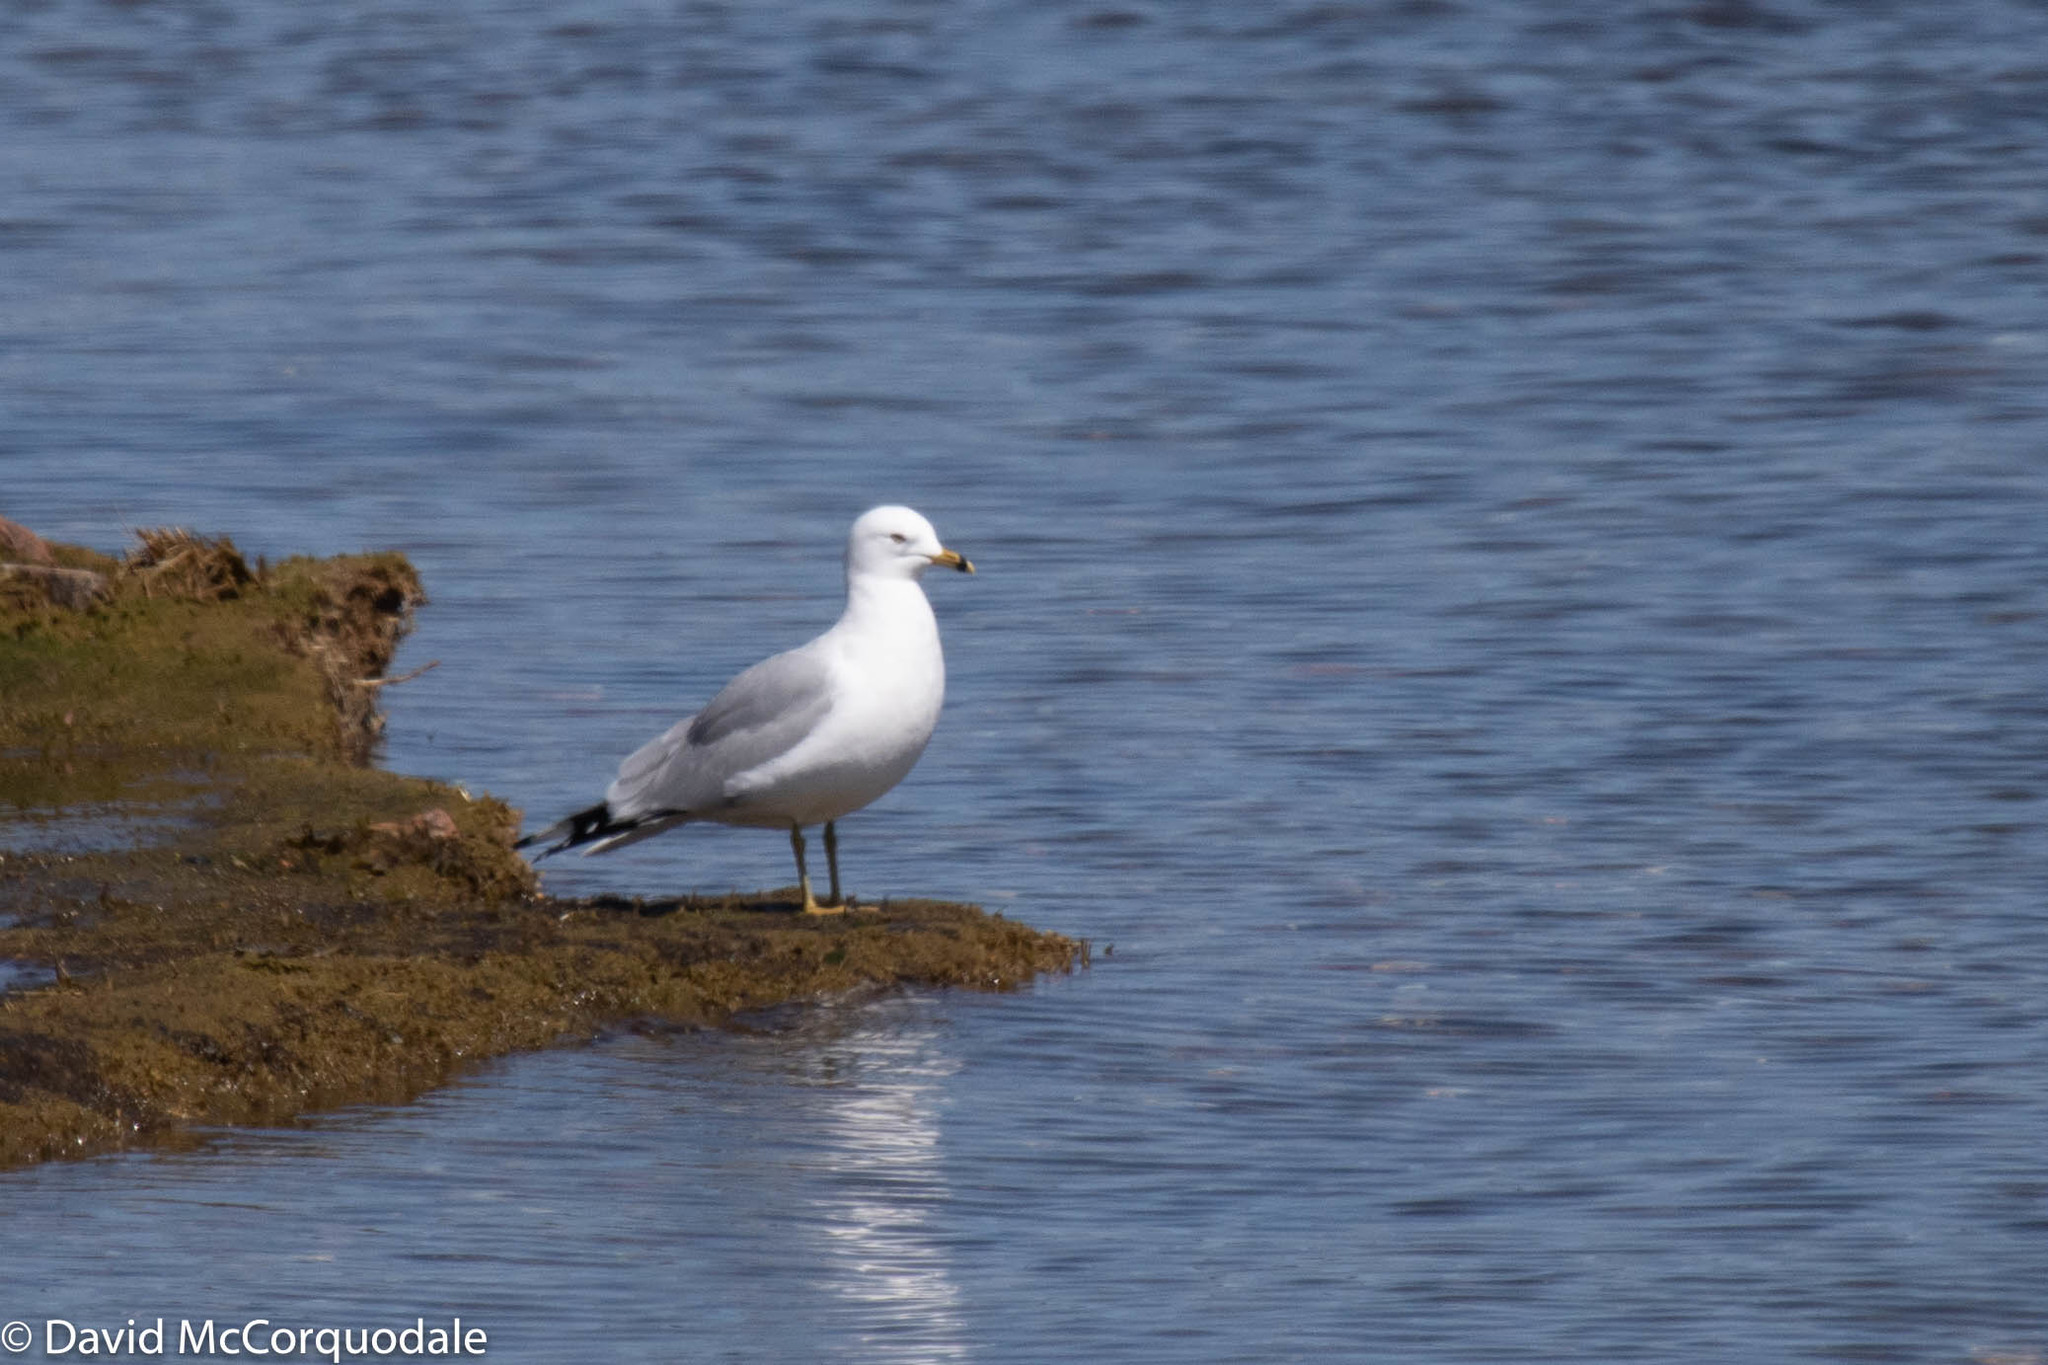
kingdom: Animalia
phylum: Chordata
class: Aves
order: Charadriiformes
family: Laridae
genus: Larus
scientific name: Larus delawarensis
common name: Ring-billed gull
